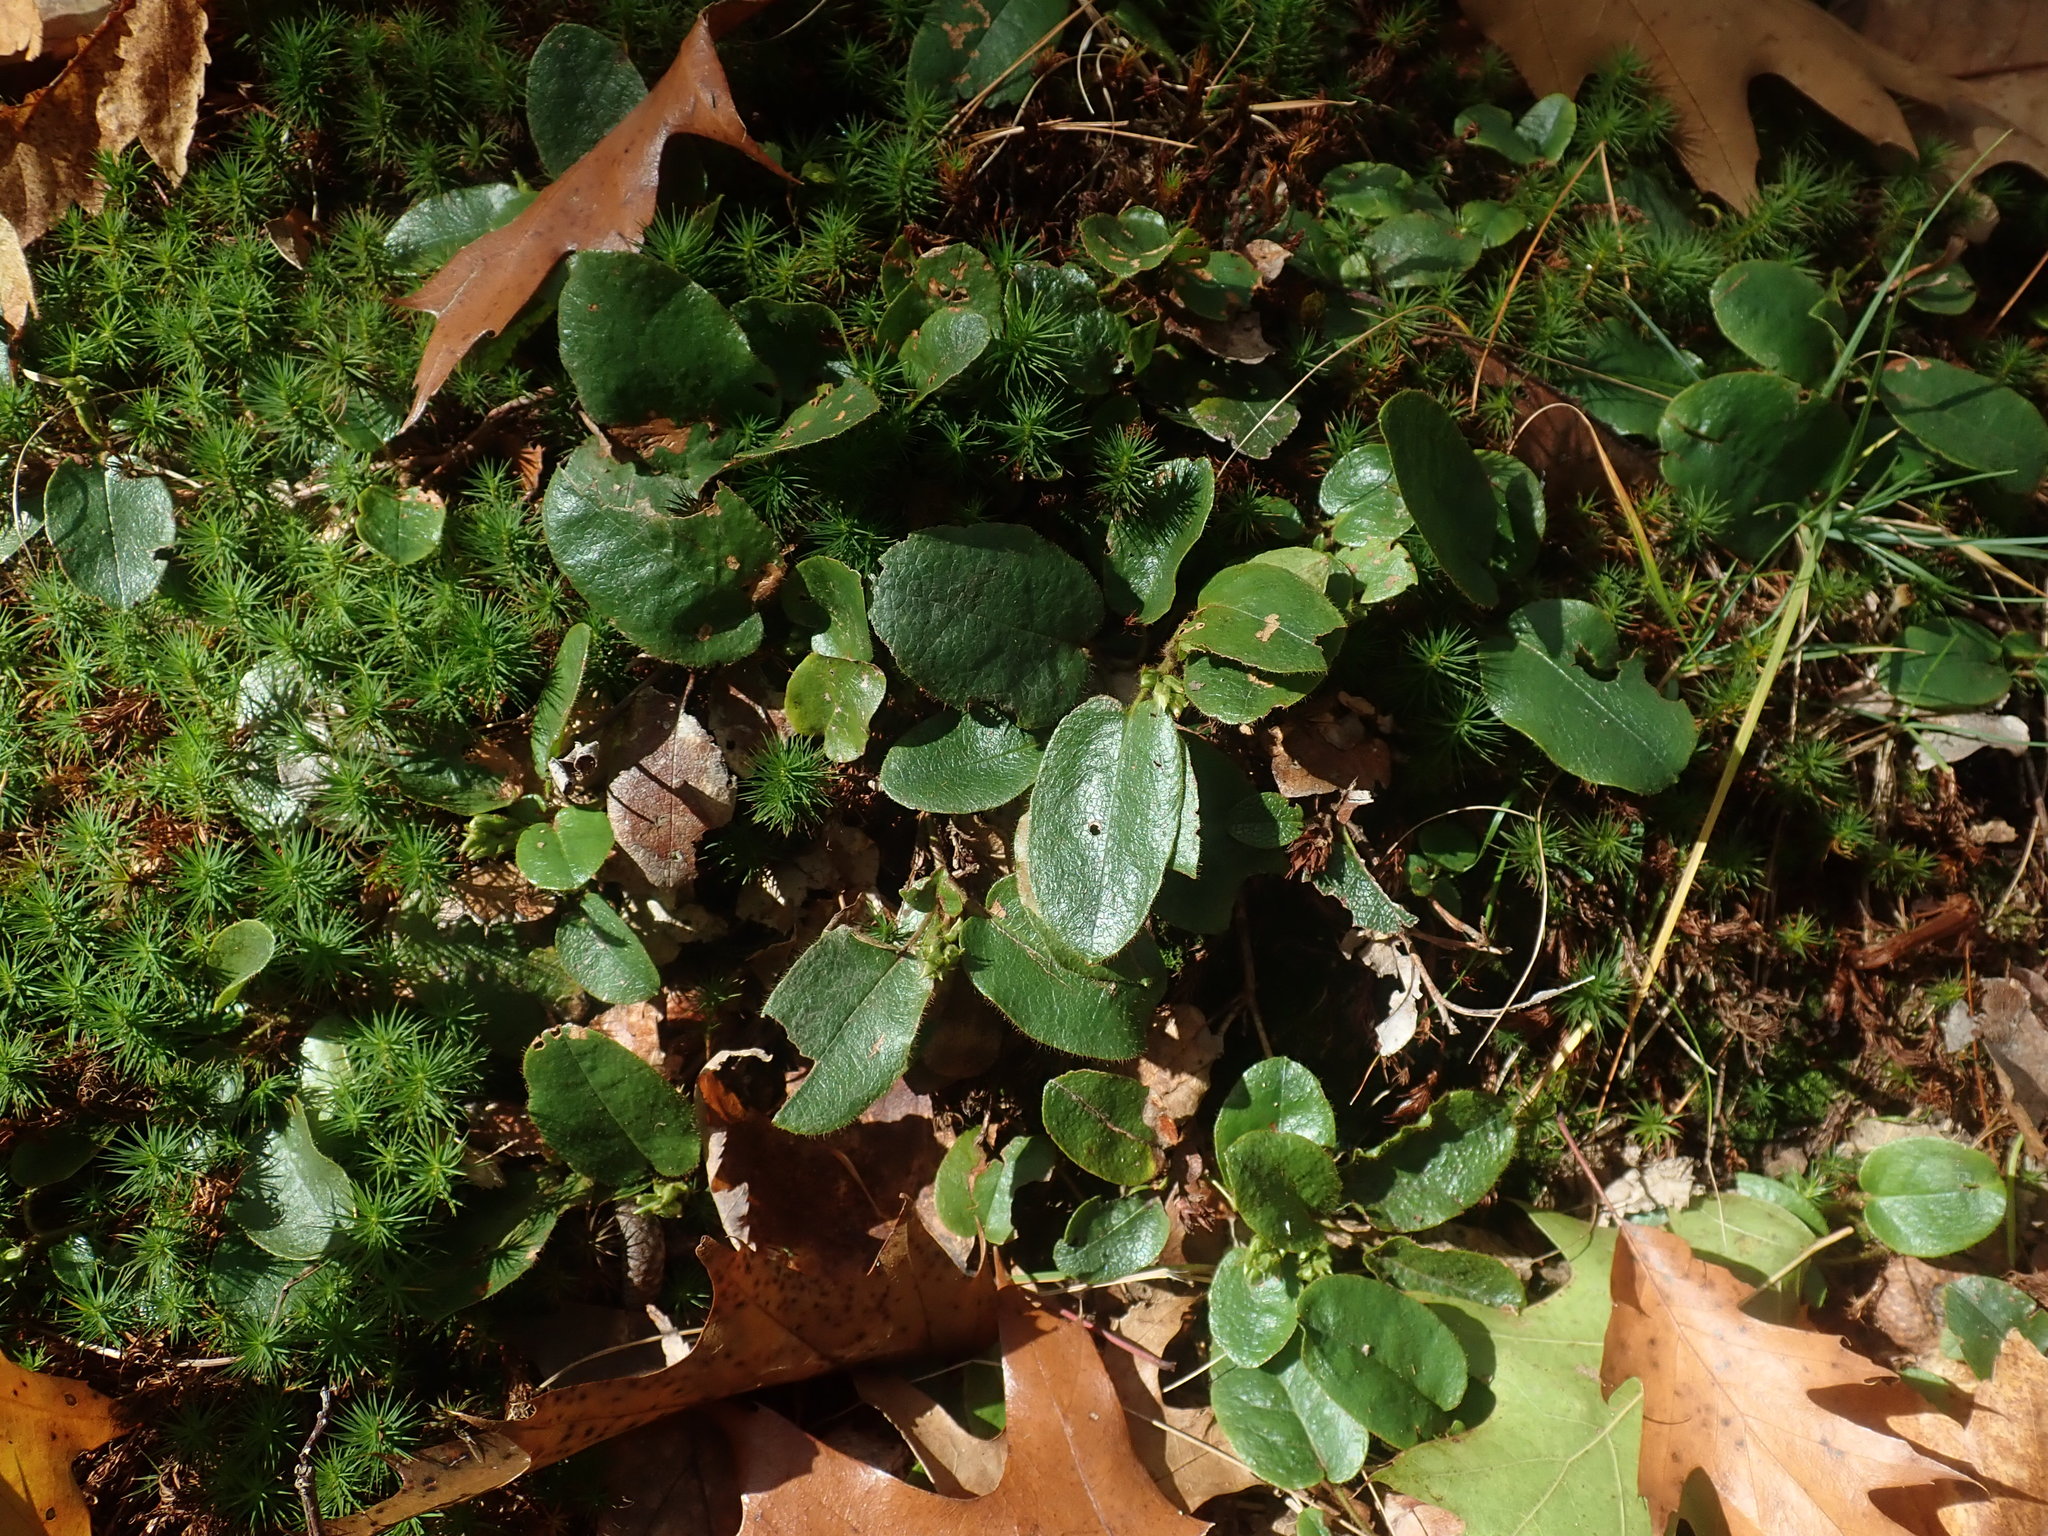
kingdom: Plantae
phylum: Tracheophyta
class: Magnoliopsida
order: Ericales
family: Ericaceae
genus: Epigaea
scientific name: Epigaea repens
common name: Gravelroot
